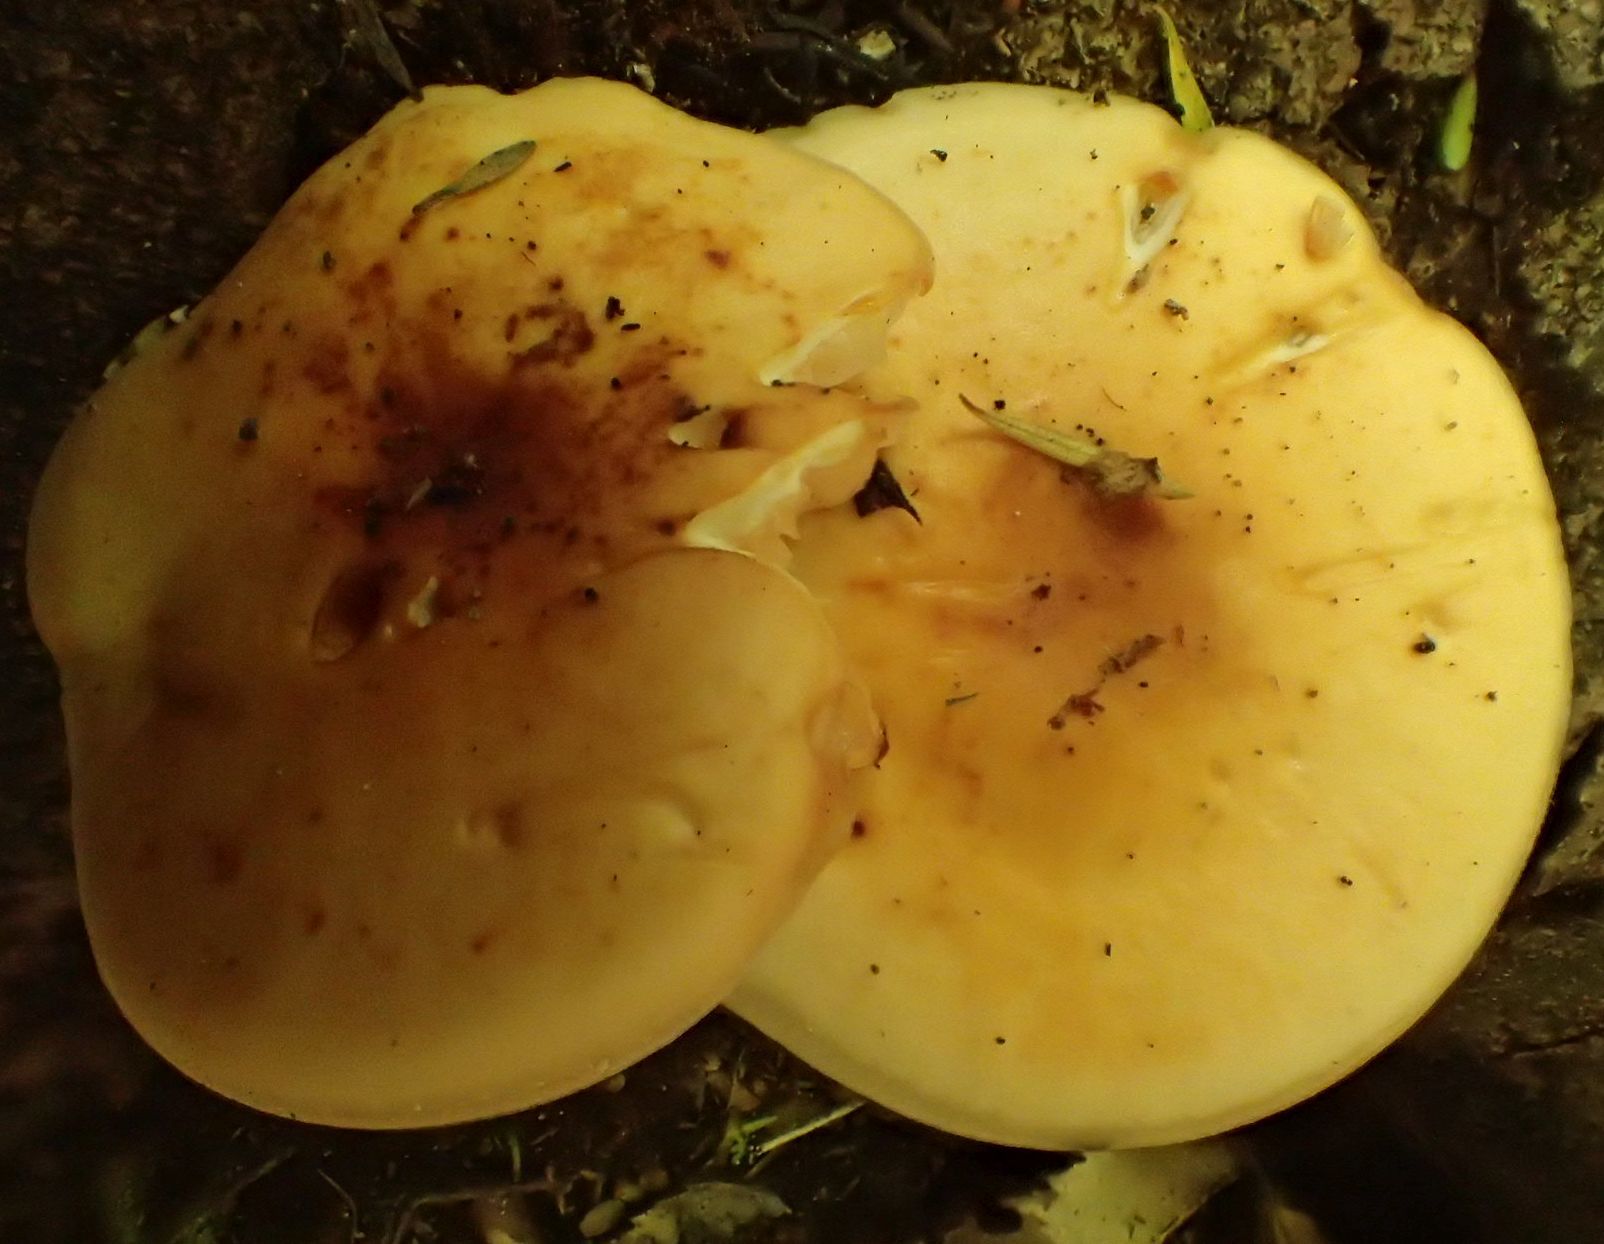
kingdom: Fungi
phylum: Basidiomycota
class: Agaricomycetes
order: Agaricales
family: Physalacriaceae
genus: Flammulina
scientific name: Flammulina velutipes
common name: Velvet shank
